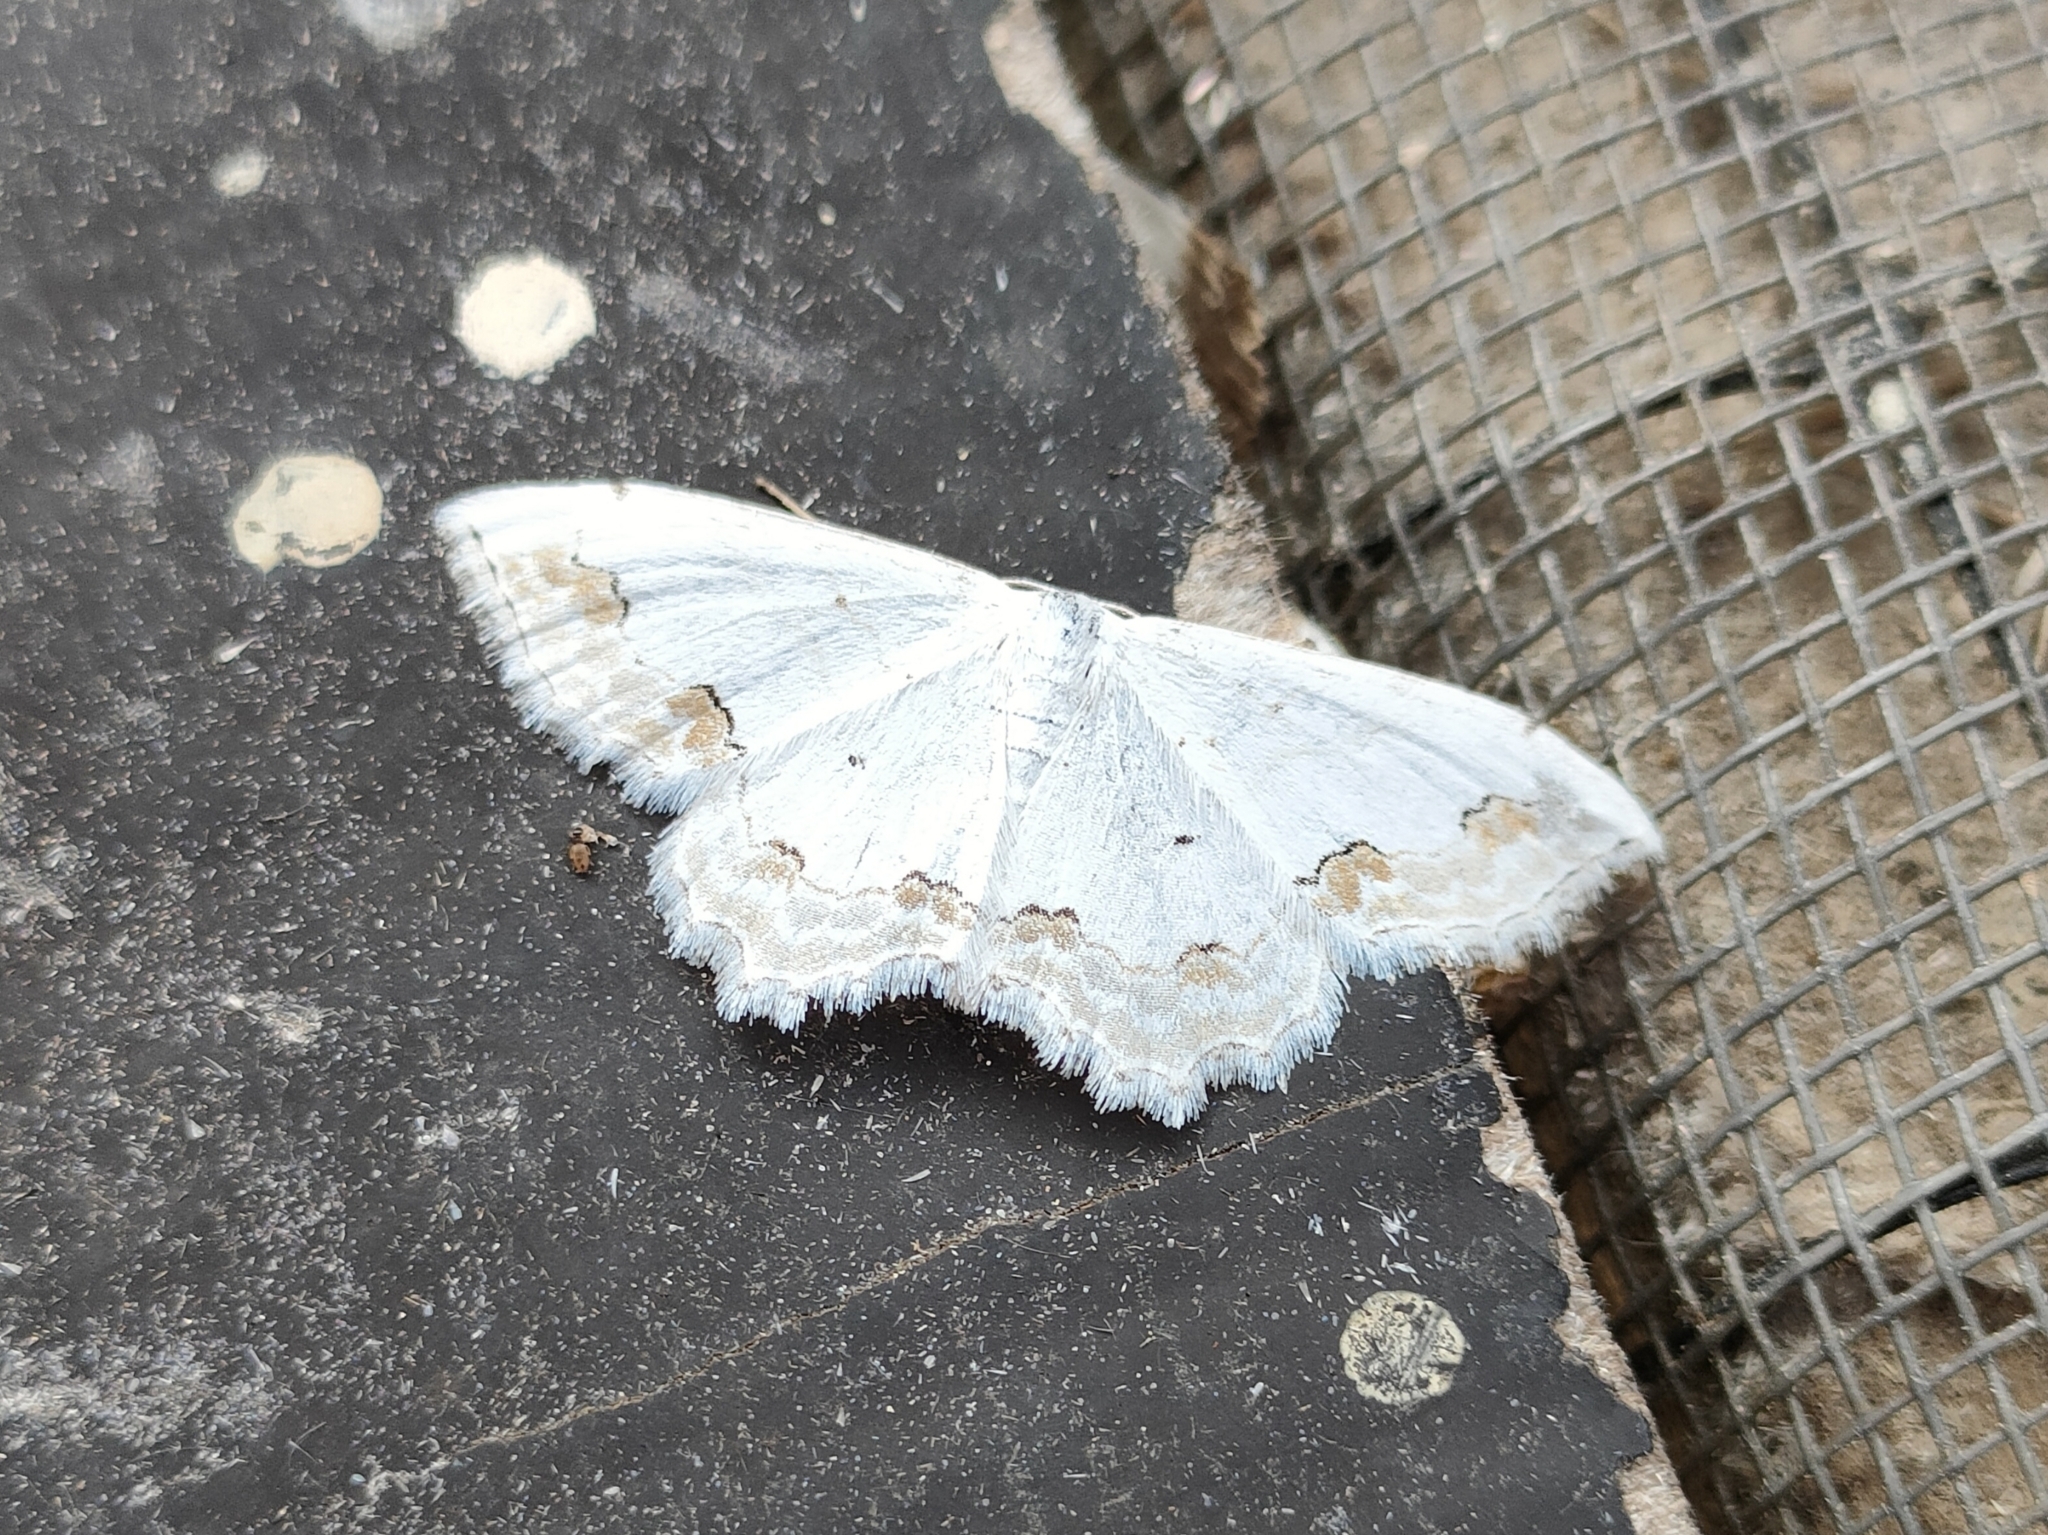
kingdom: Animalia
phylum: Arthropoda
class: Insecta
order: Lepidoptera
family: Geometridae
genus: Scopula
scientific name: Scopula ornata
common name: Lace border
